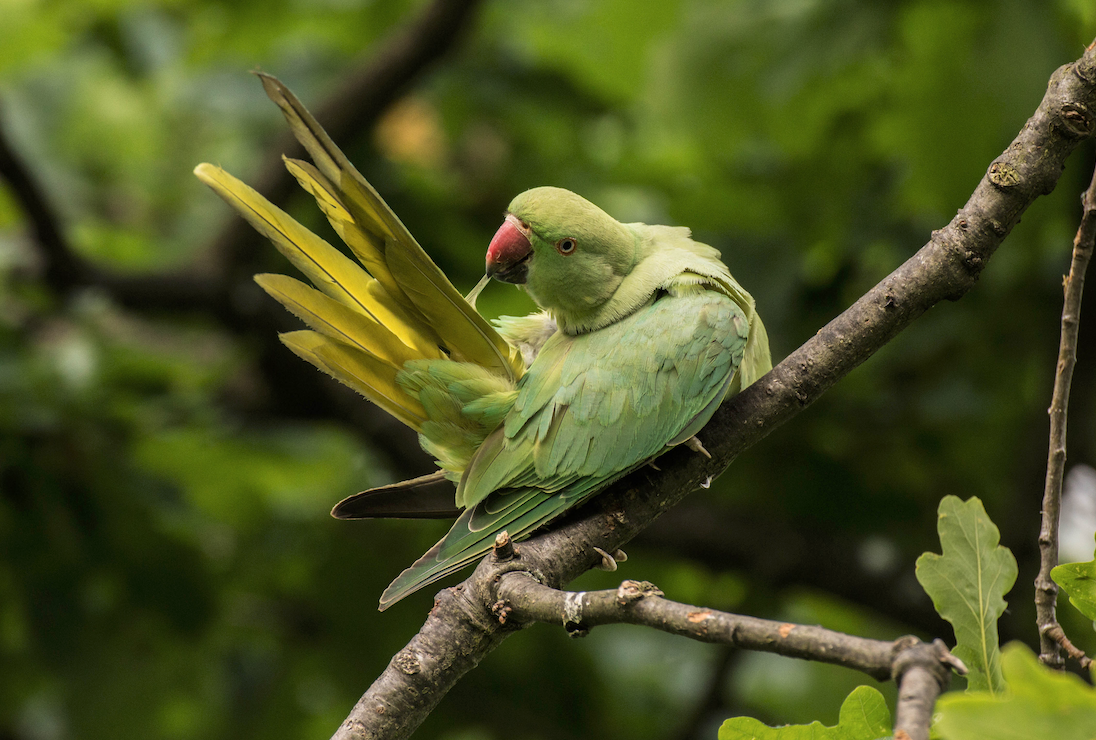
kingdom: Animalia
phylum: Chordata
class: Aves
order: Psittaciformes
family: Psittacidae
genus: Psittacula
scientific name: Psittacula krameri
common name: Rose-ringed parakeet
